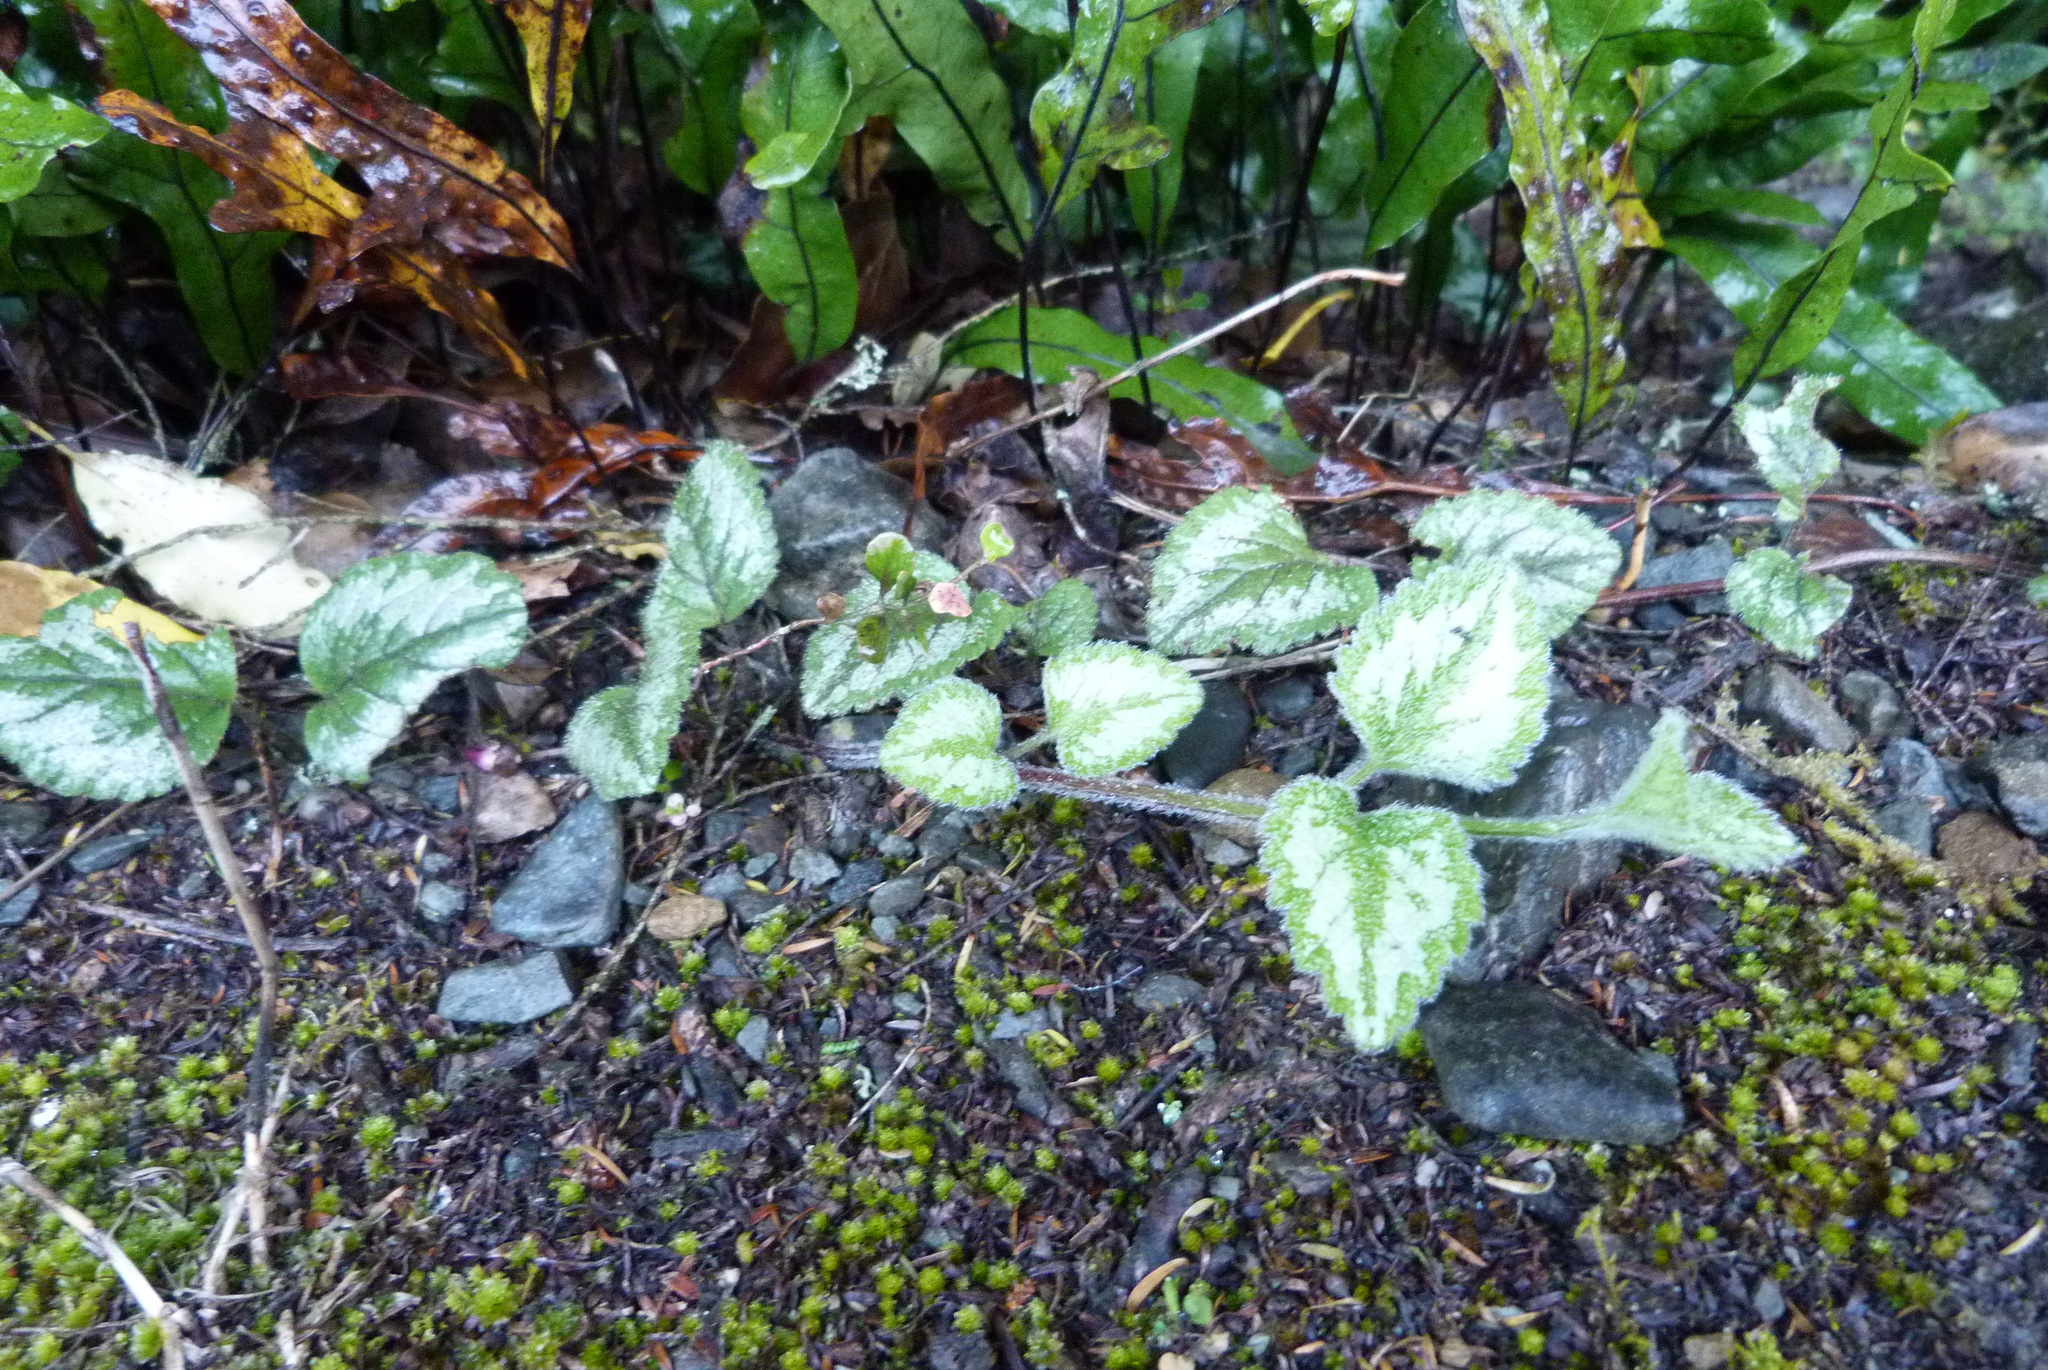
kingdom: Plantae
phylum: Tracheophyta
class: Magnoliopsida
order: Lamiales
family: Lamiaceae
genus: Lamium
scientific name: Lamium galeobdolon
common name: Yellow archangel
